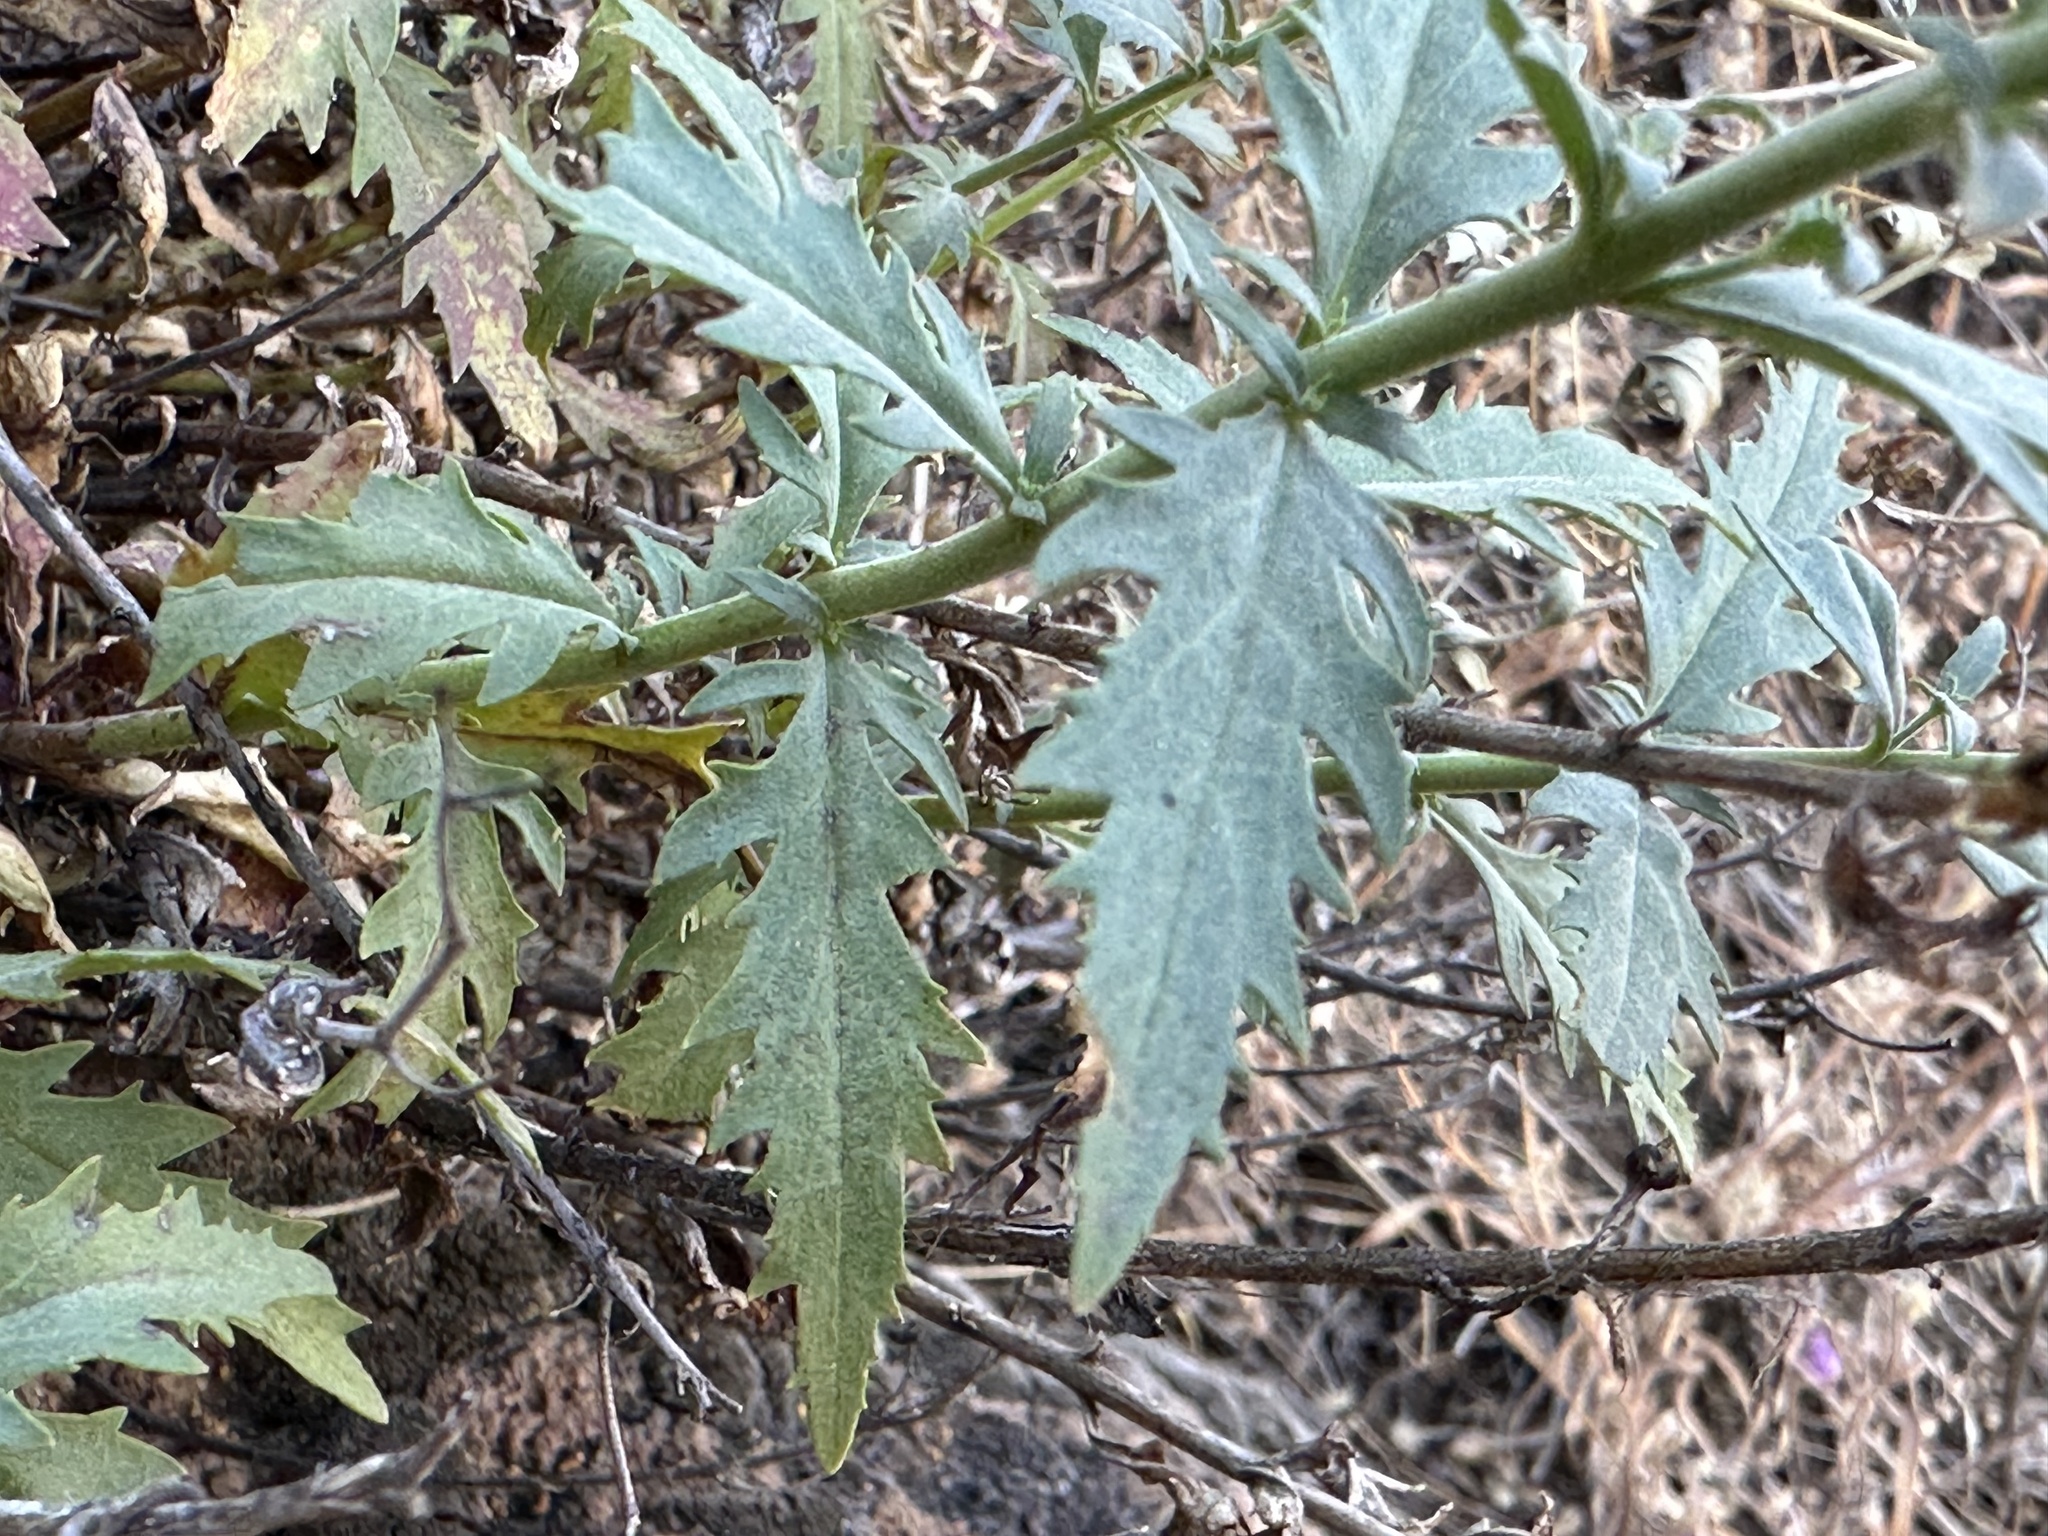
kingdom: Plantae
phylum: Tracheophyta
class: Magnoliopsida
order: Lamiales
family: Plantaginaceae
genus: Penstemon
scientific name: Penstemon richardsonii
